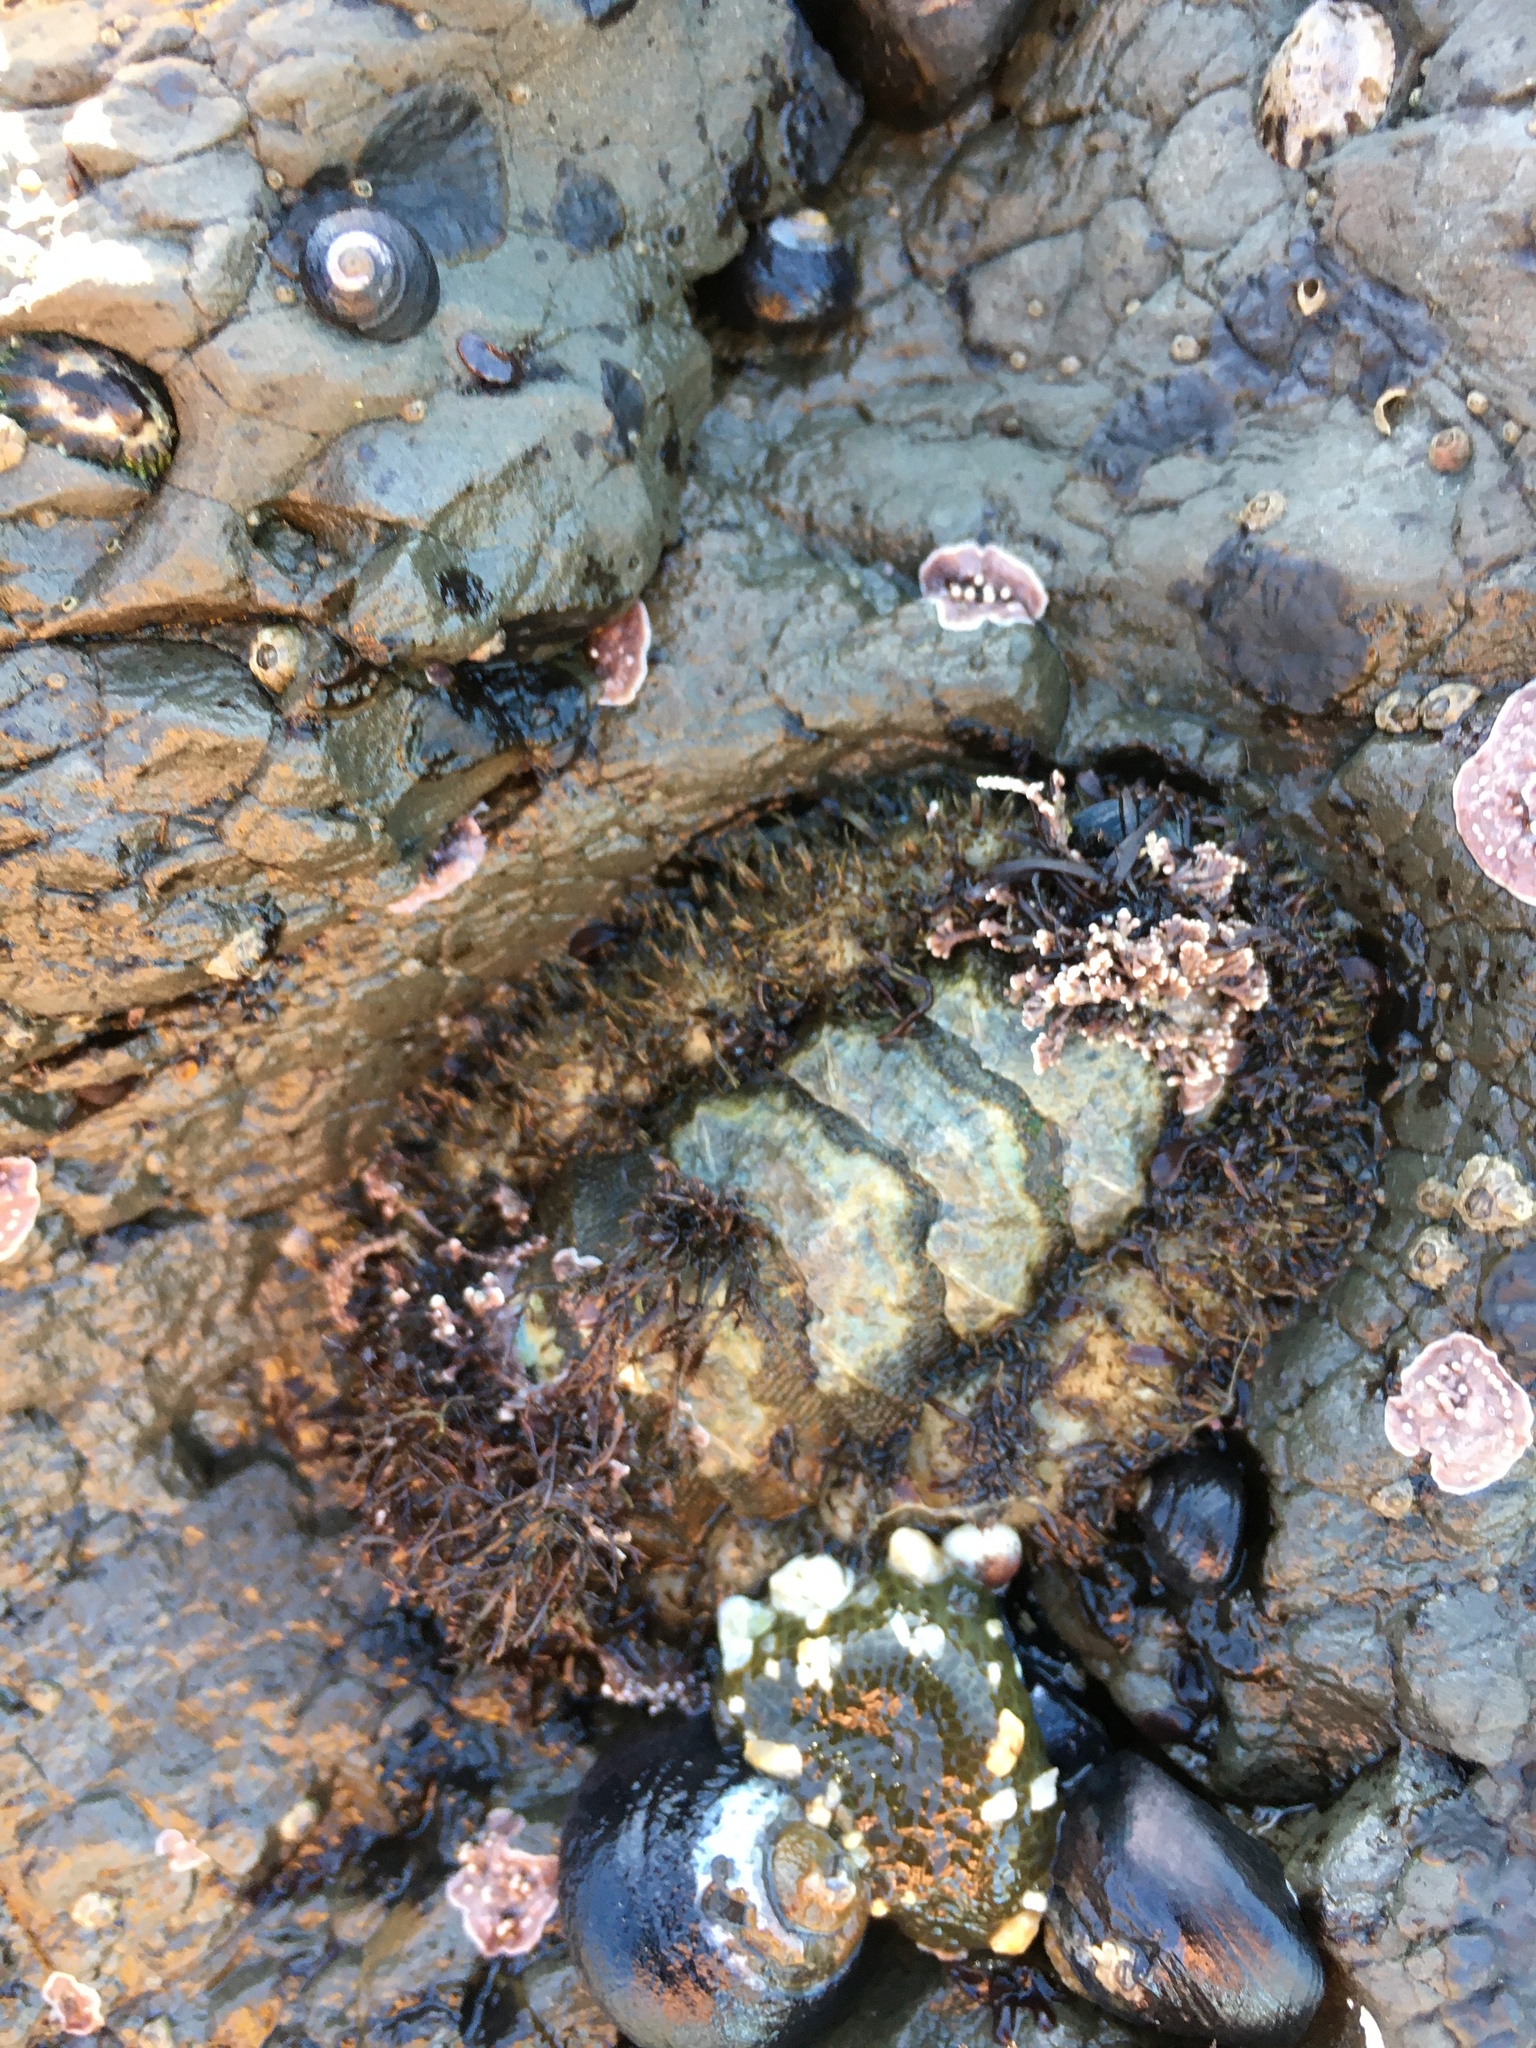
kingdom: Animalia
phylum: Mollusca
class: Polyplacophora
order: Chitonida
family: Mopaliidae
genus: Mopalia
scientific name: Mopalia muscosa
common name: Mossy chiton
